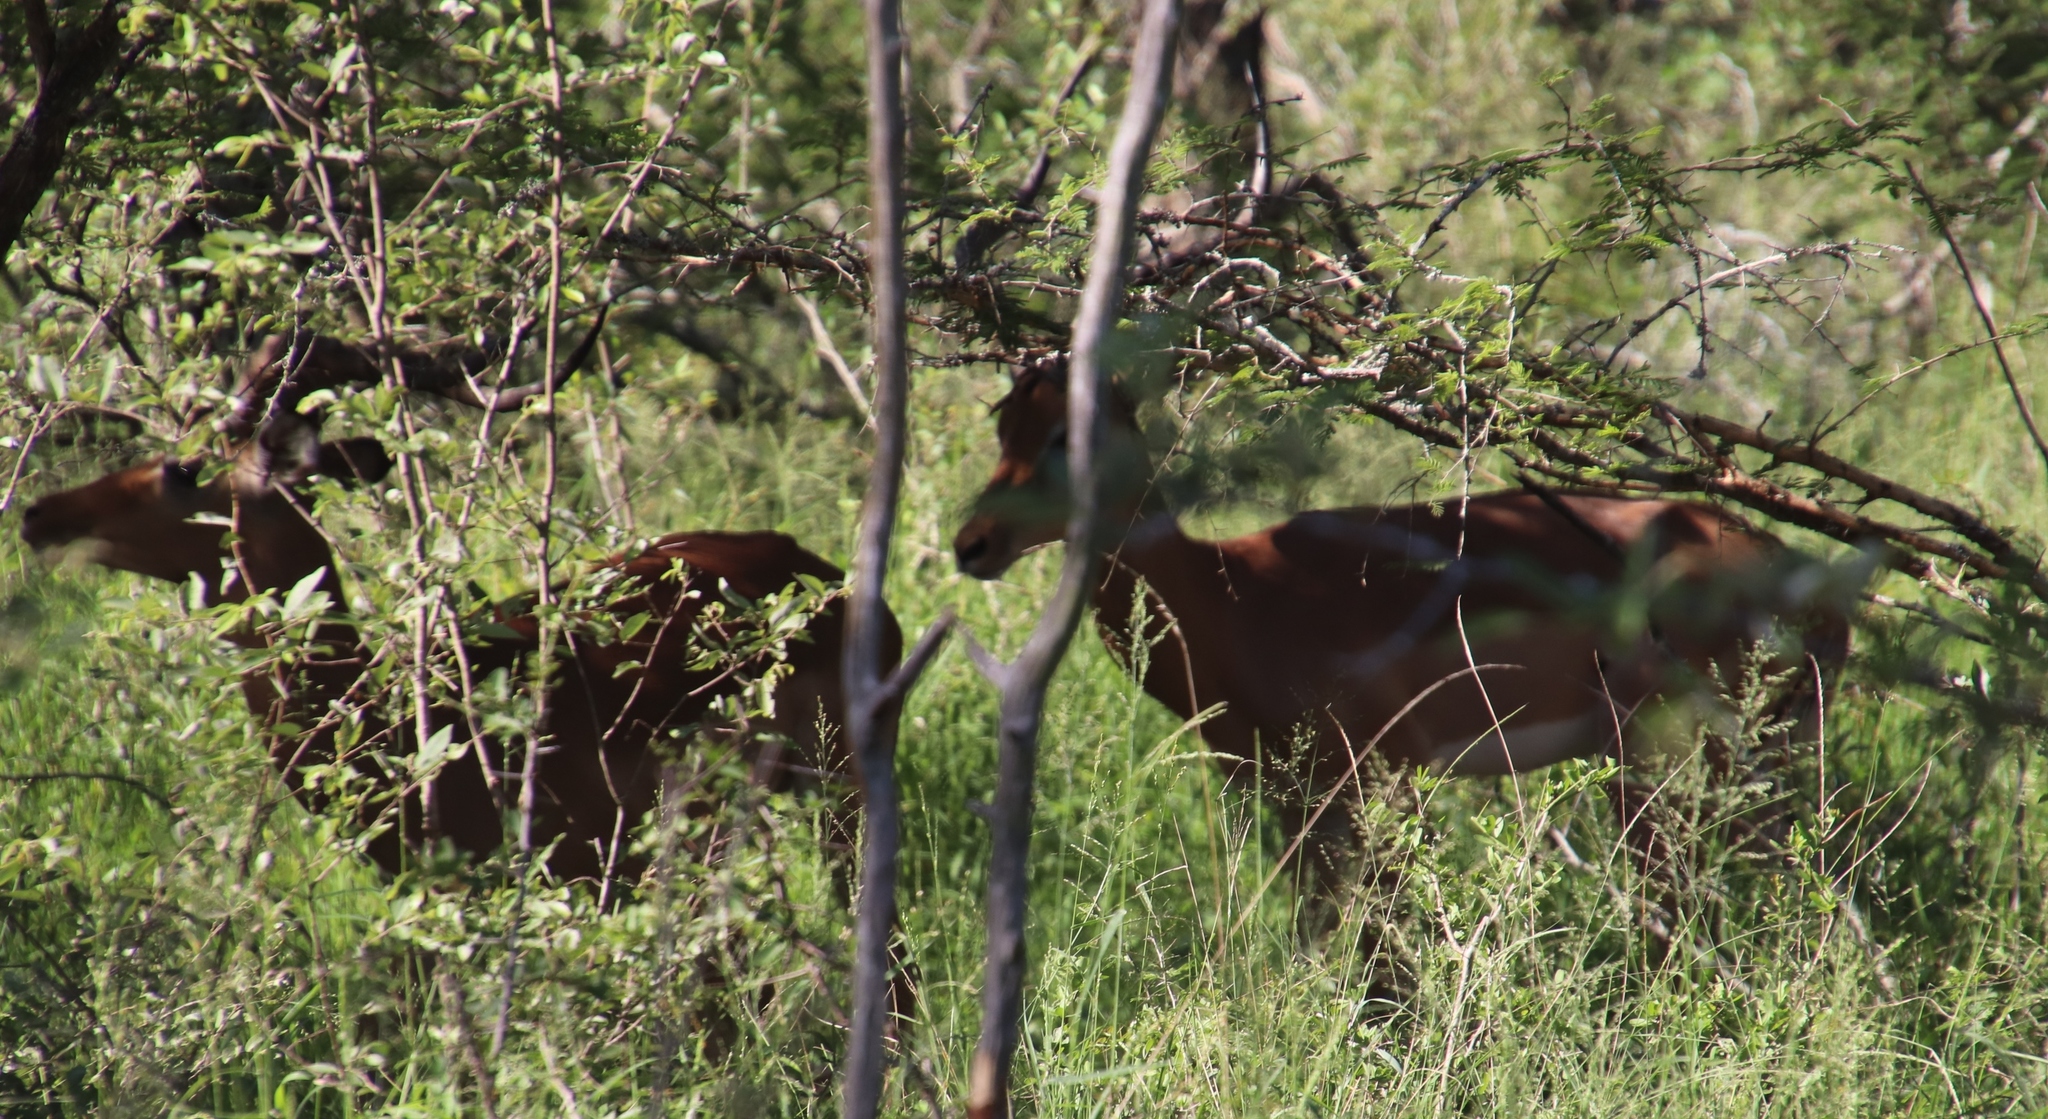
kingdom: Animalia
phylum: Chordata
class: Mammalia
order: Artiodactyla
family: Bovidae
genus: Aepyceros
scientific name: Aepyceros melampus
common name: Impala
